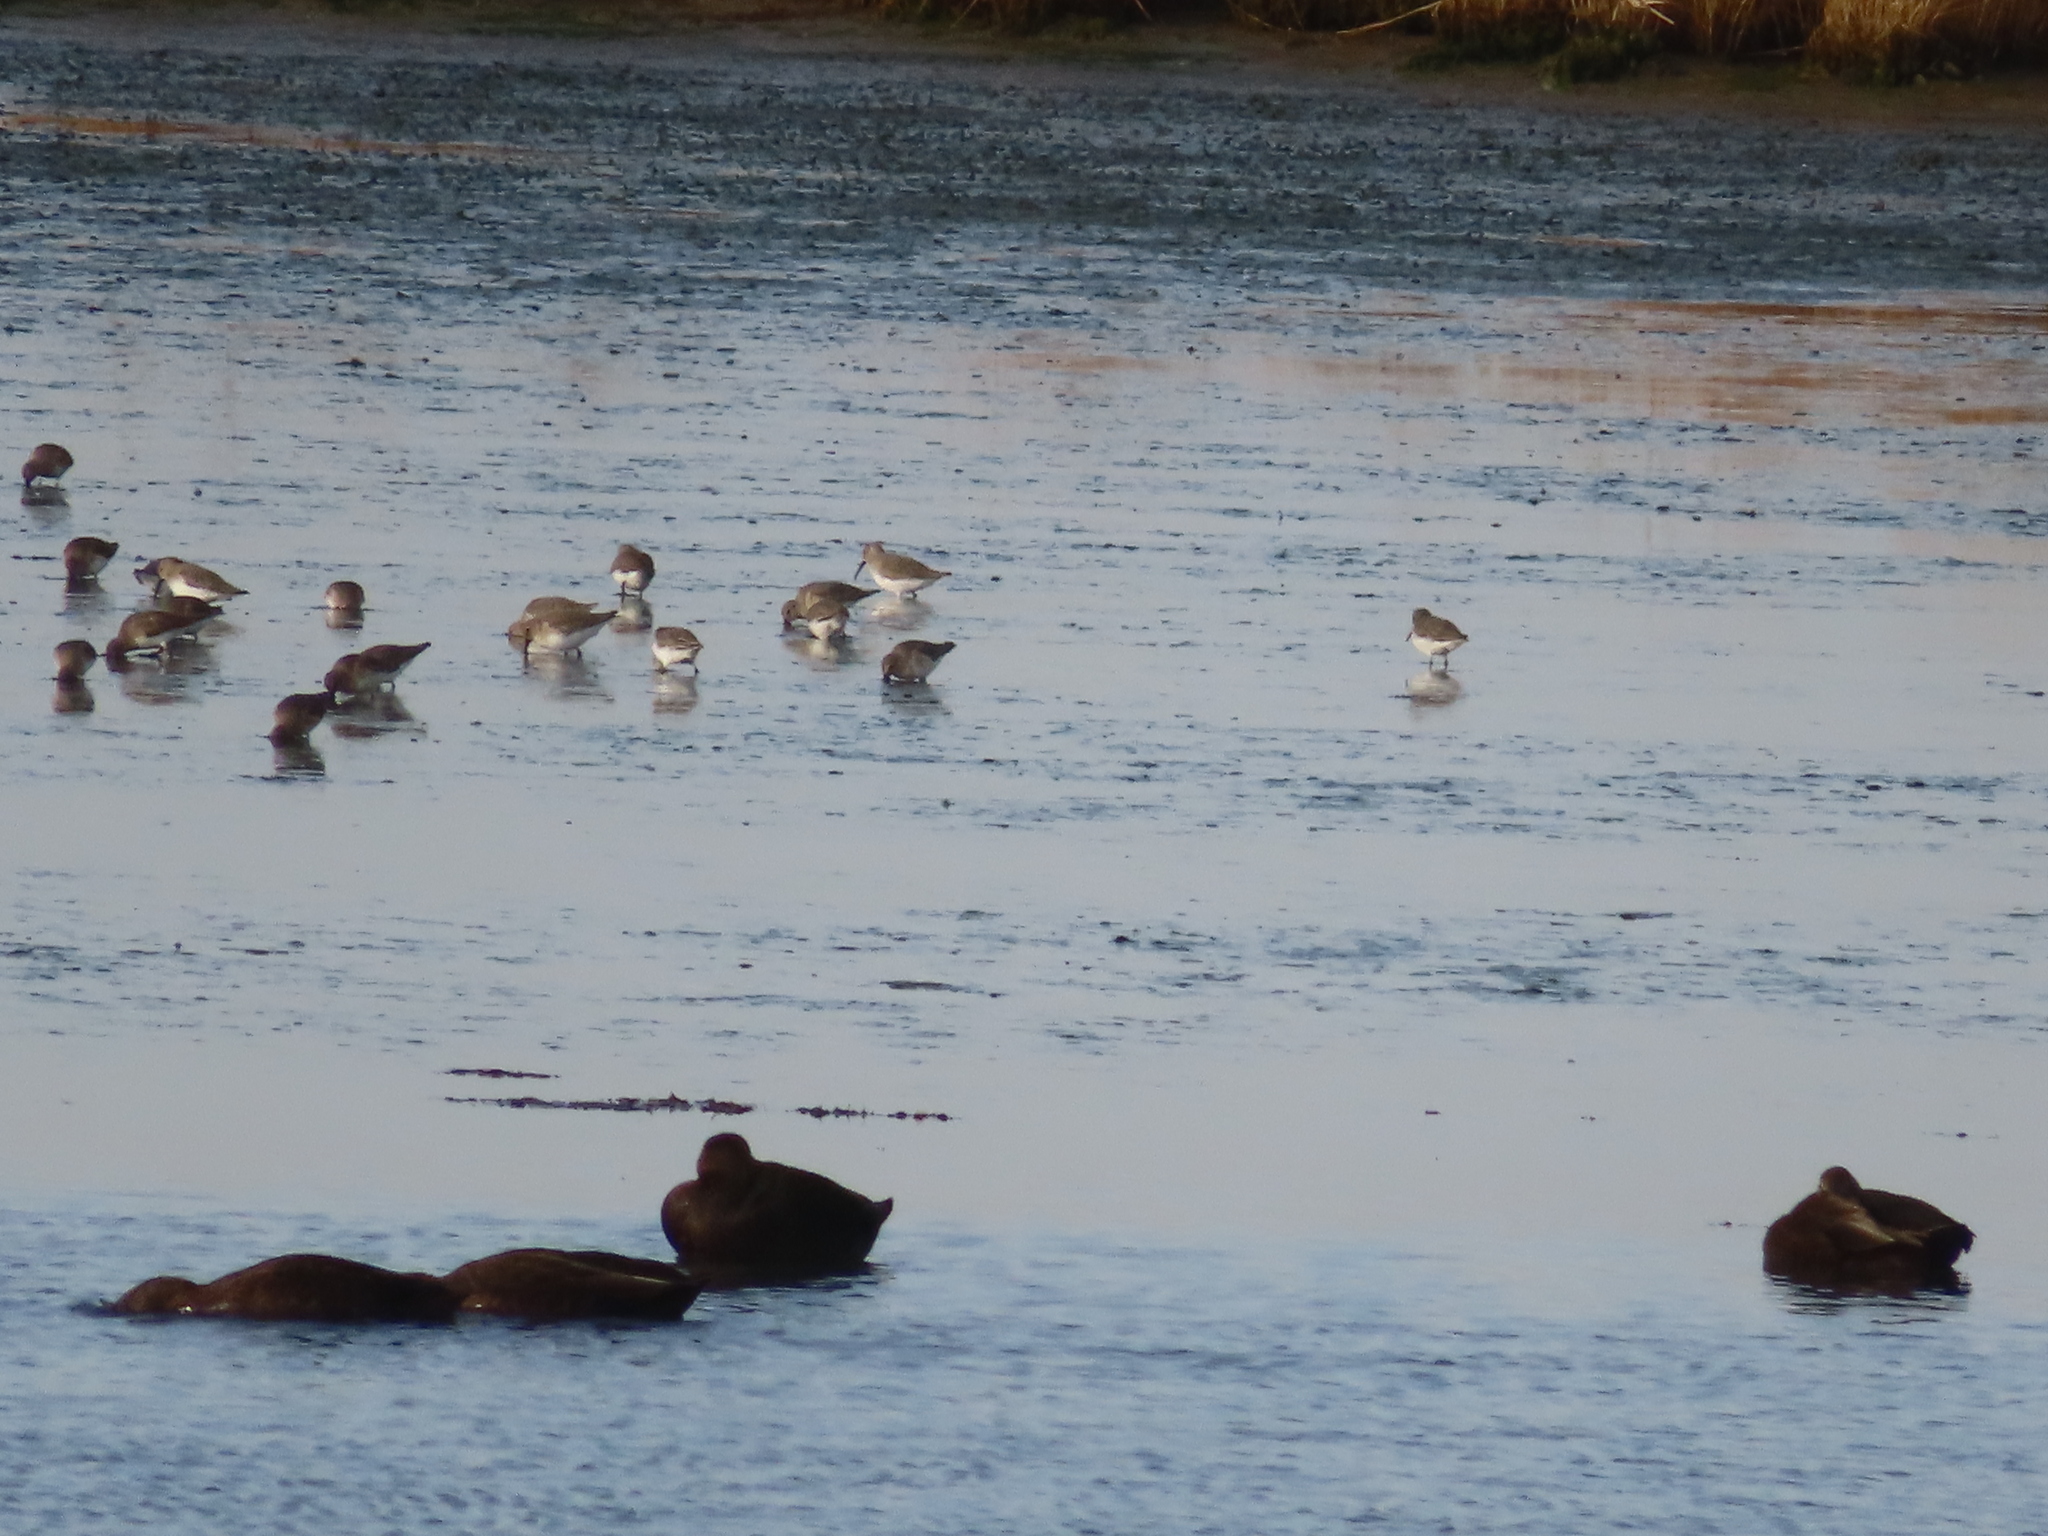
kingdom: Animalia
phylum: Chordata
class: Aves
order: Charadriiformes
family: Scolopacidae
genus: Calidris
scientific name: Calidris alpina
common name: Dunlin
